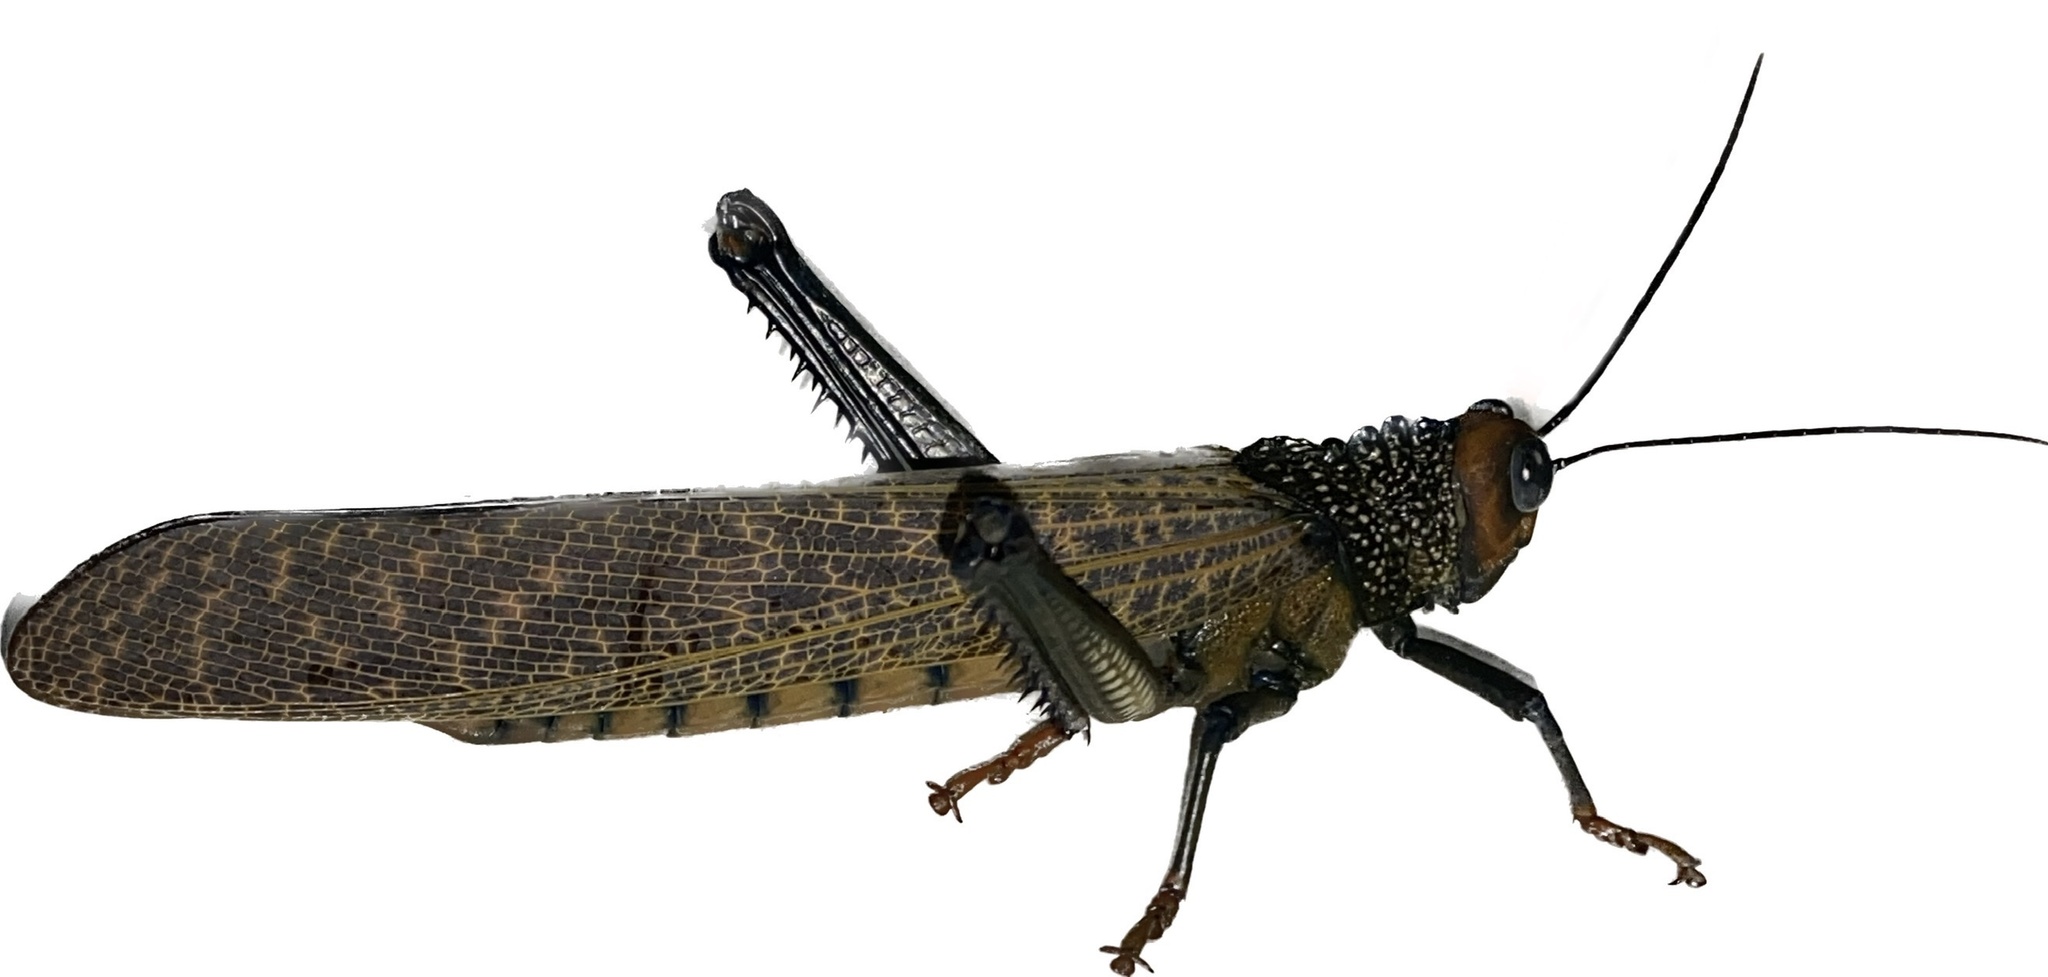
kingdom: Animalia
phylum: Arthropoda
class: Insecta
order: Orthoptera
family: Romaleidae
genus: Tropidacris
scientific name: Tropidacris cristata
